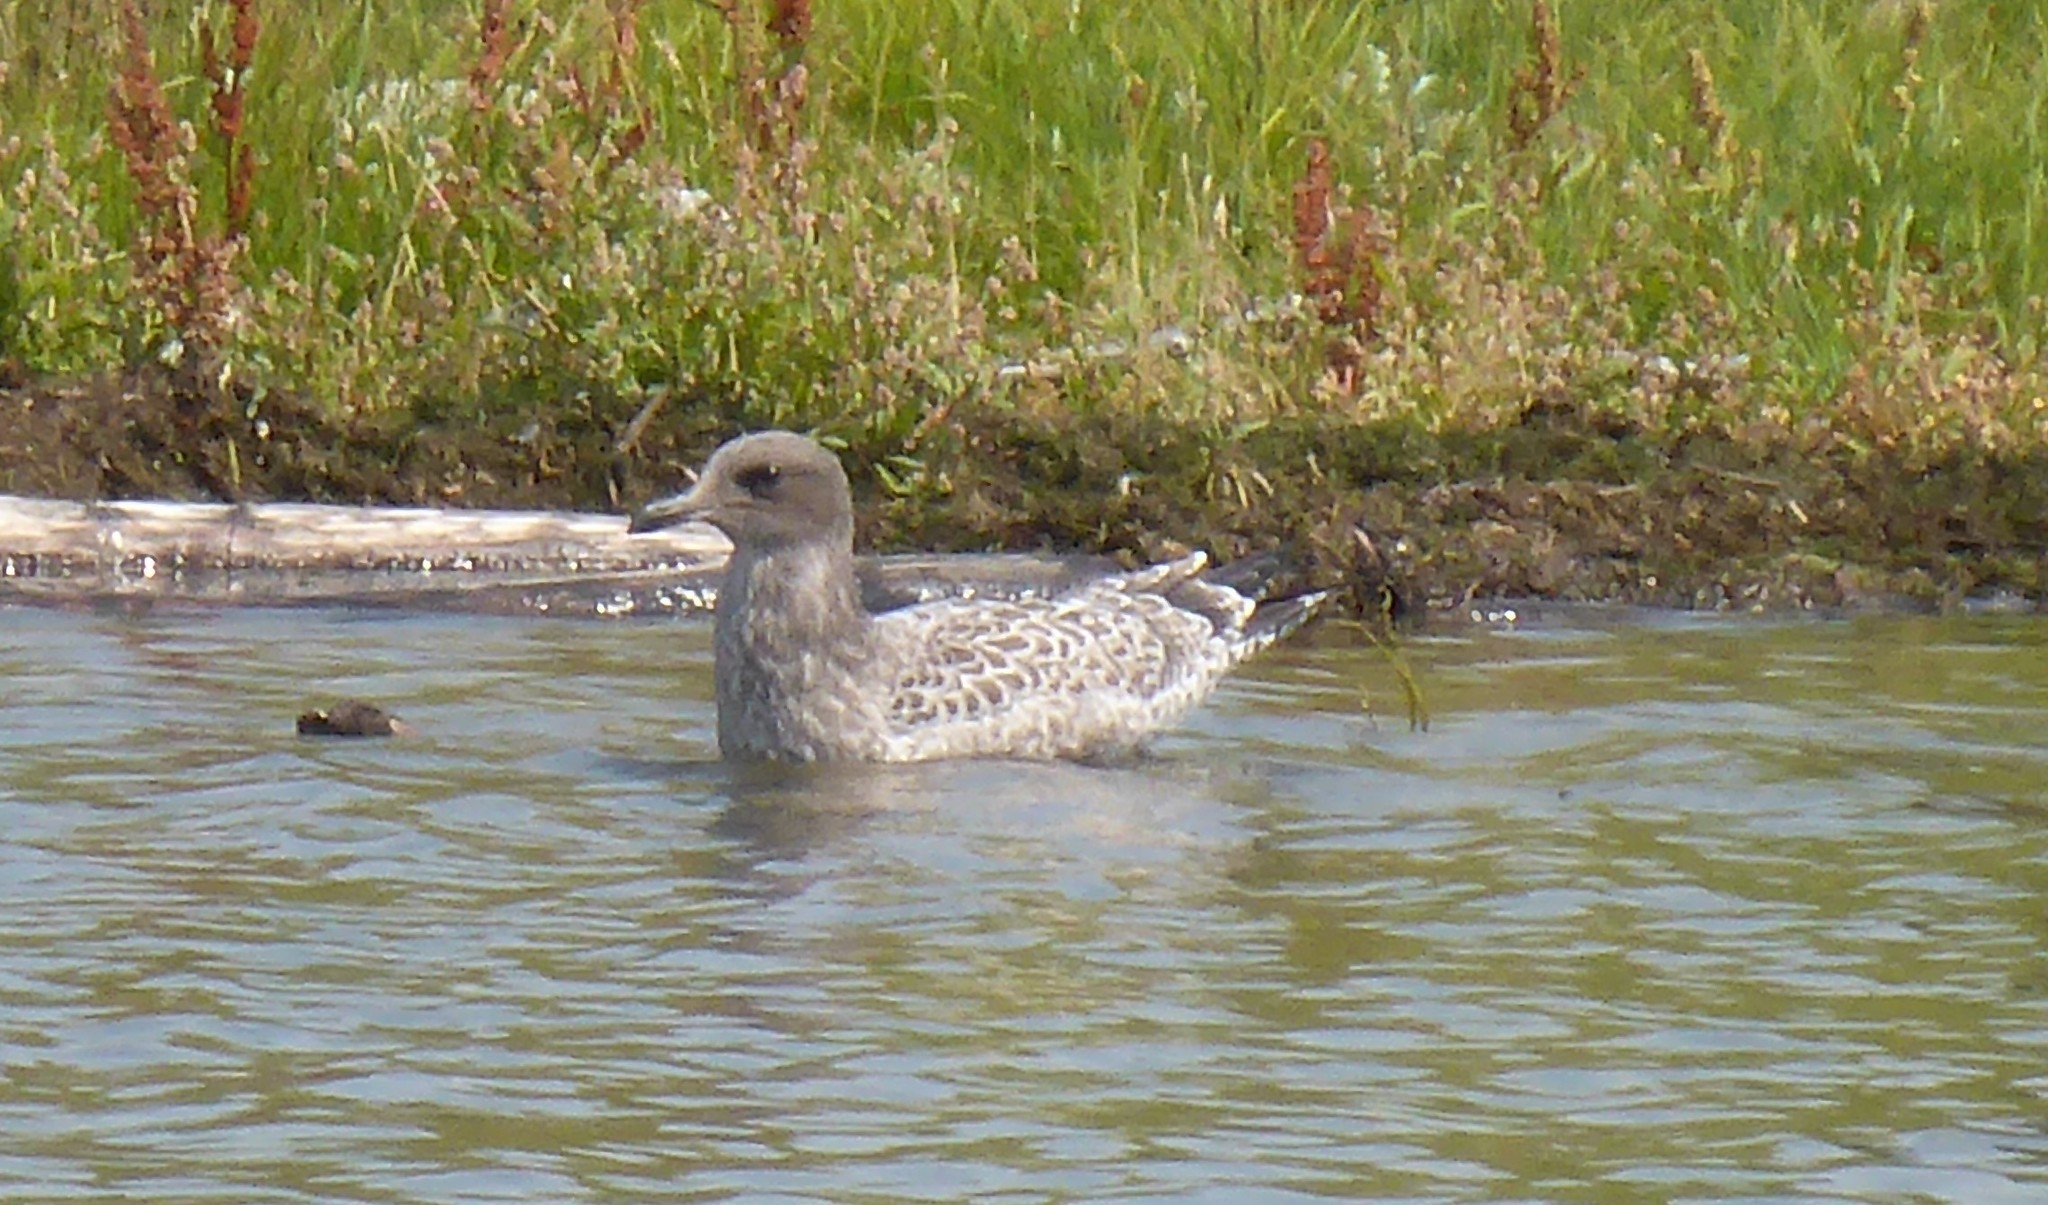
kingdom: Animalia
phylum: Chordata
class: Aves
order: Charadriiformes
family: Laridae
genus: Larus
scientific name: Larus californicus
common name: California gull
